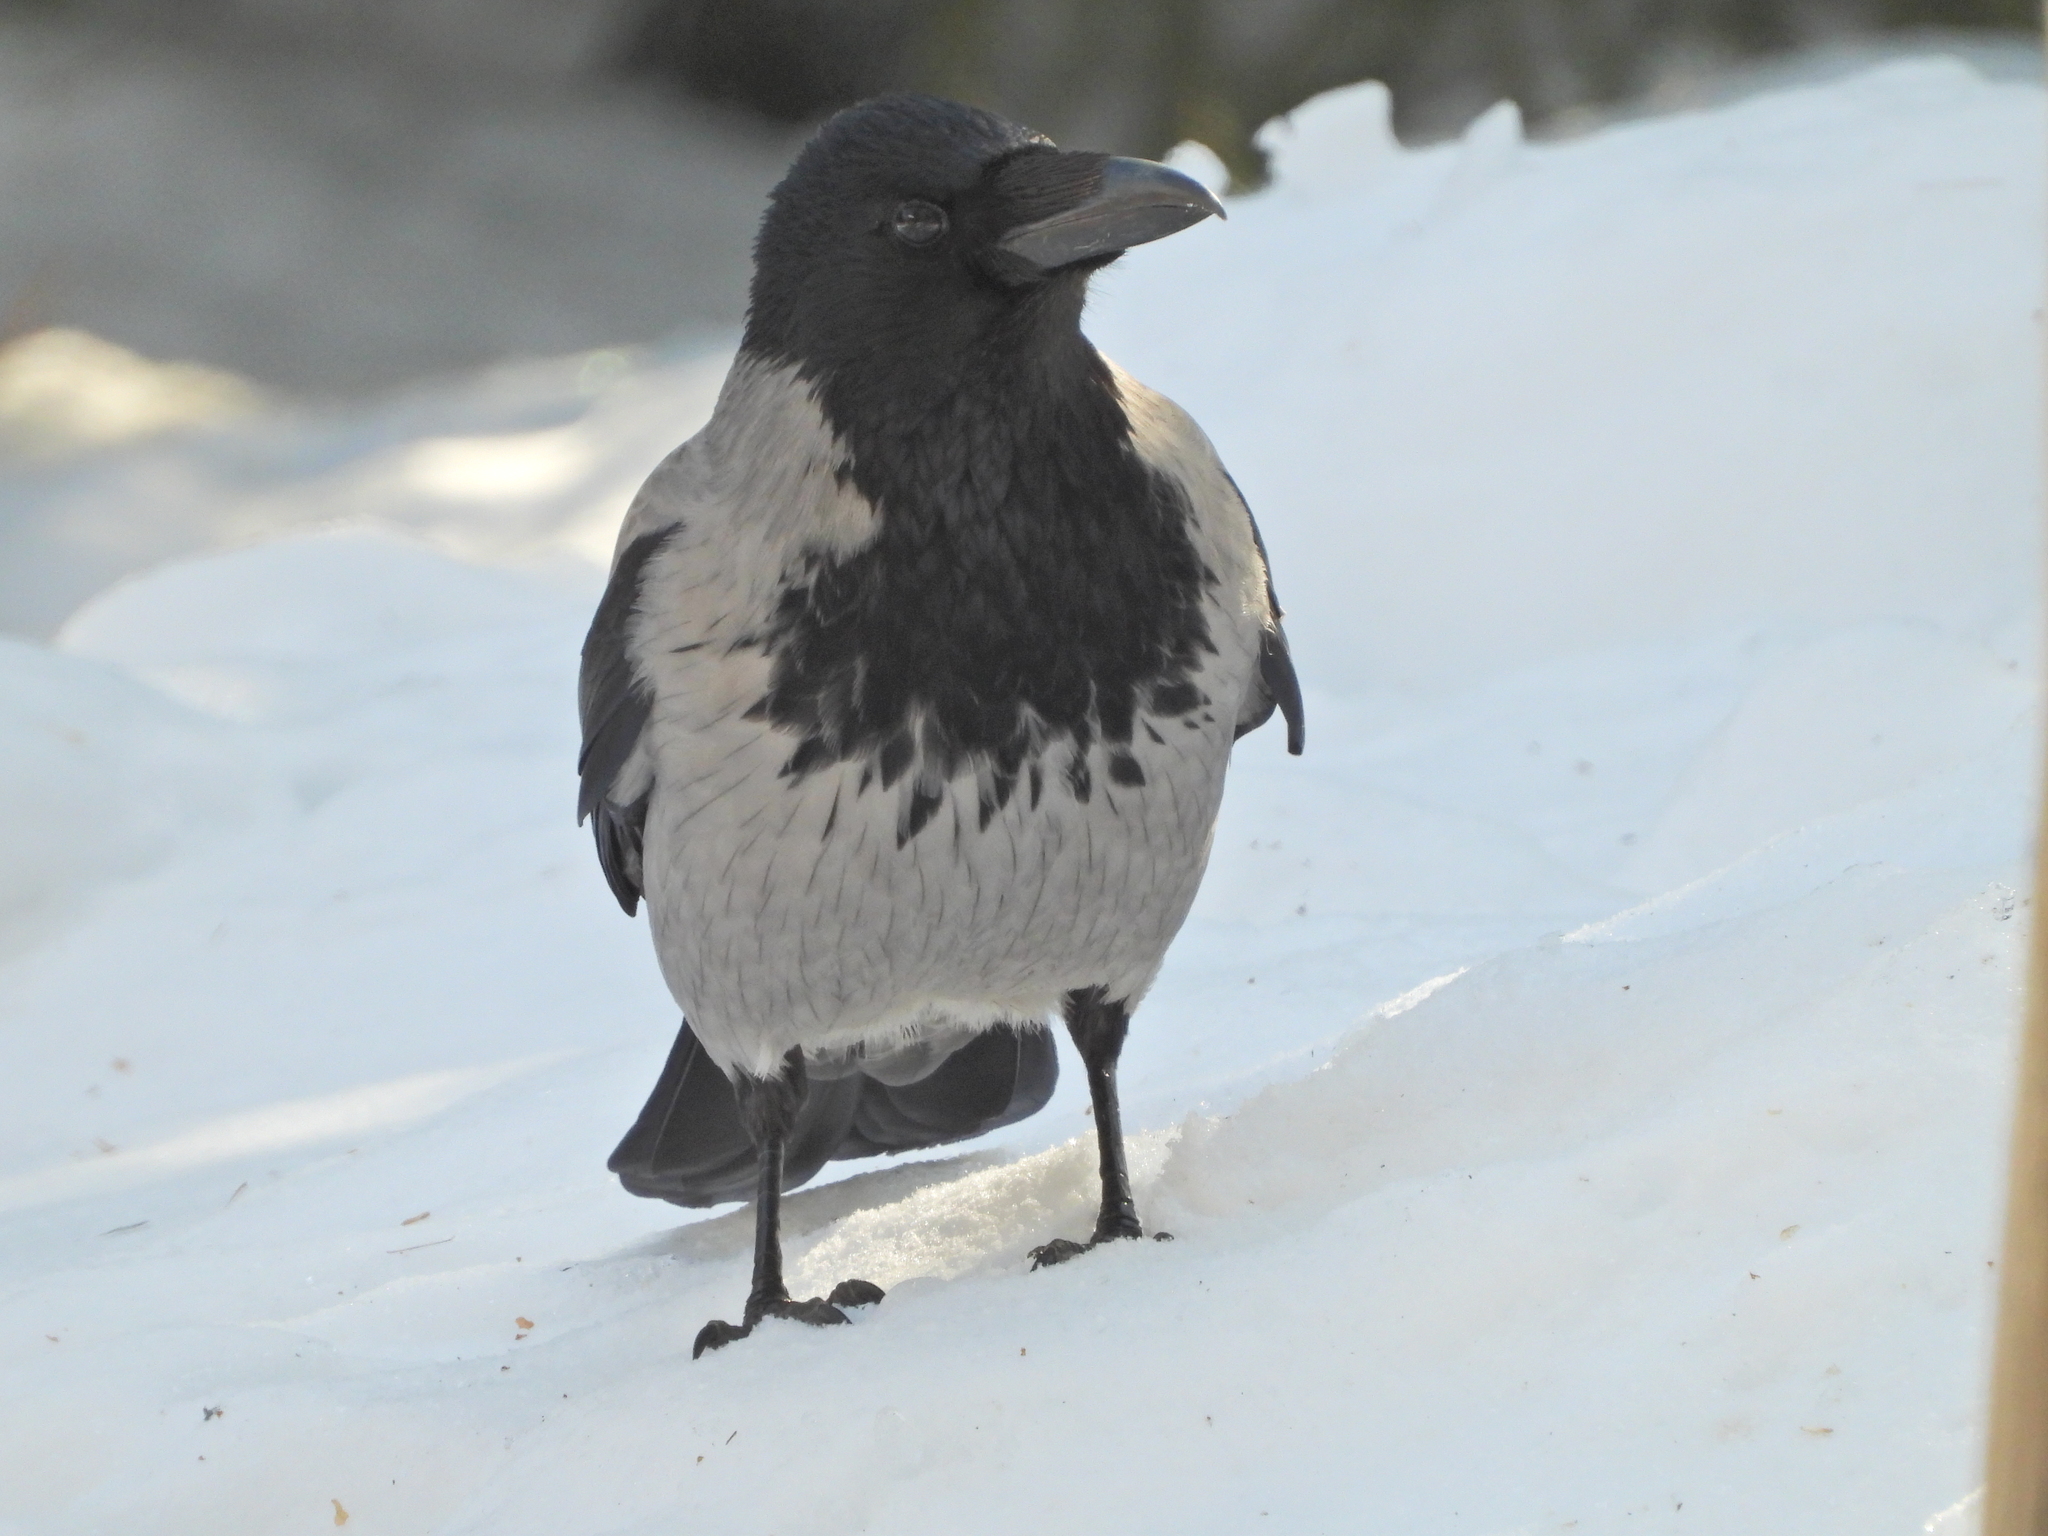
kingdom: Animalia
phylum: Chordata
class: Aves
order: Passeriformes
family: Corvidae
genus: Corvus
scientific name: Corvus cornix
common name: Hooded crow
